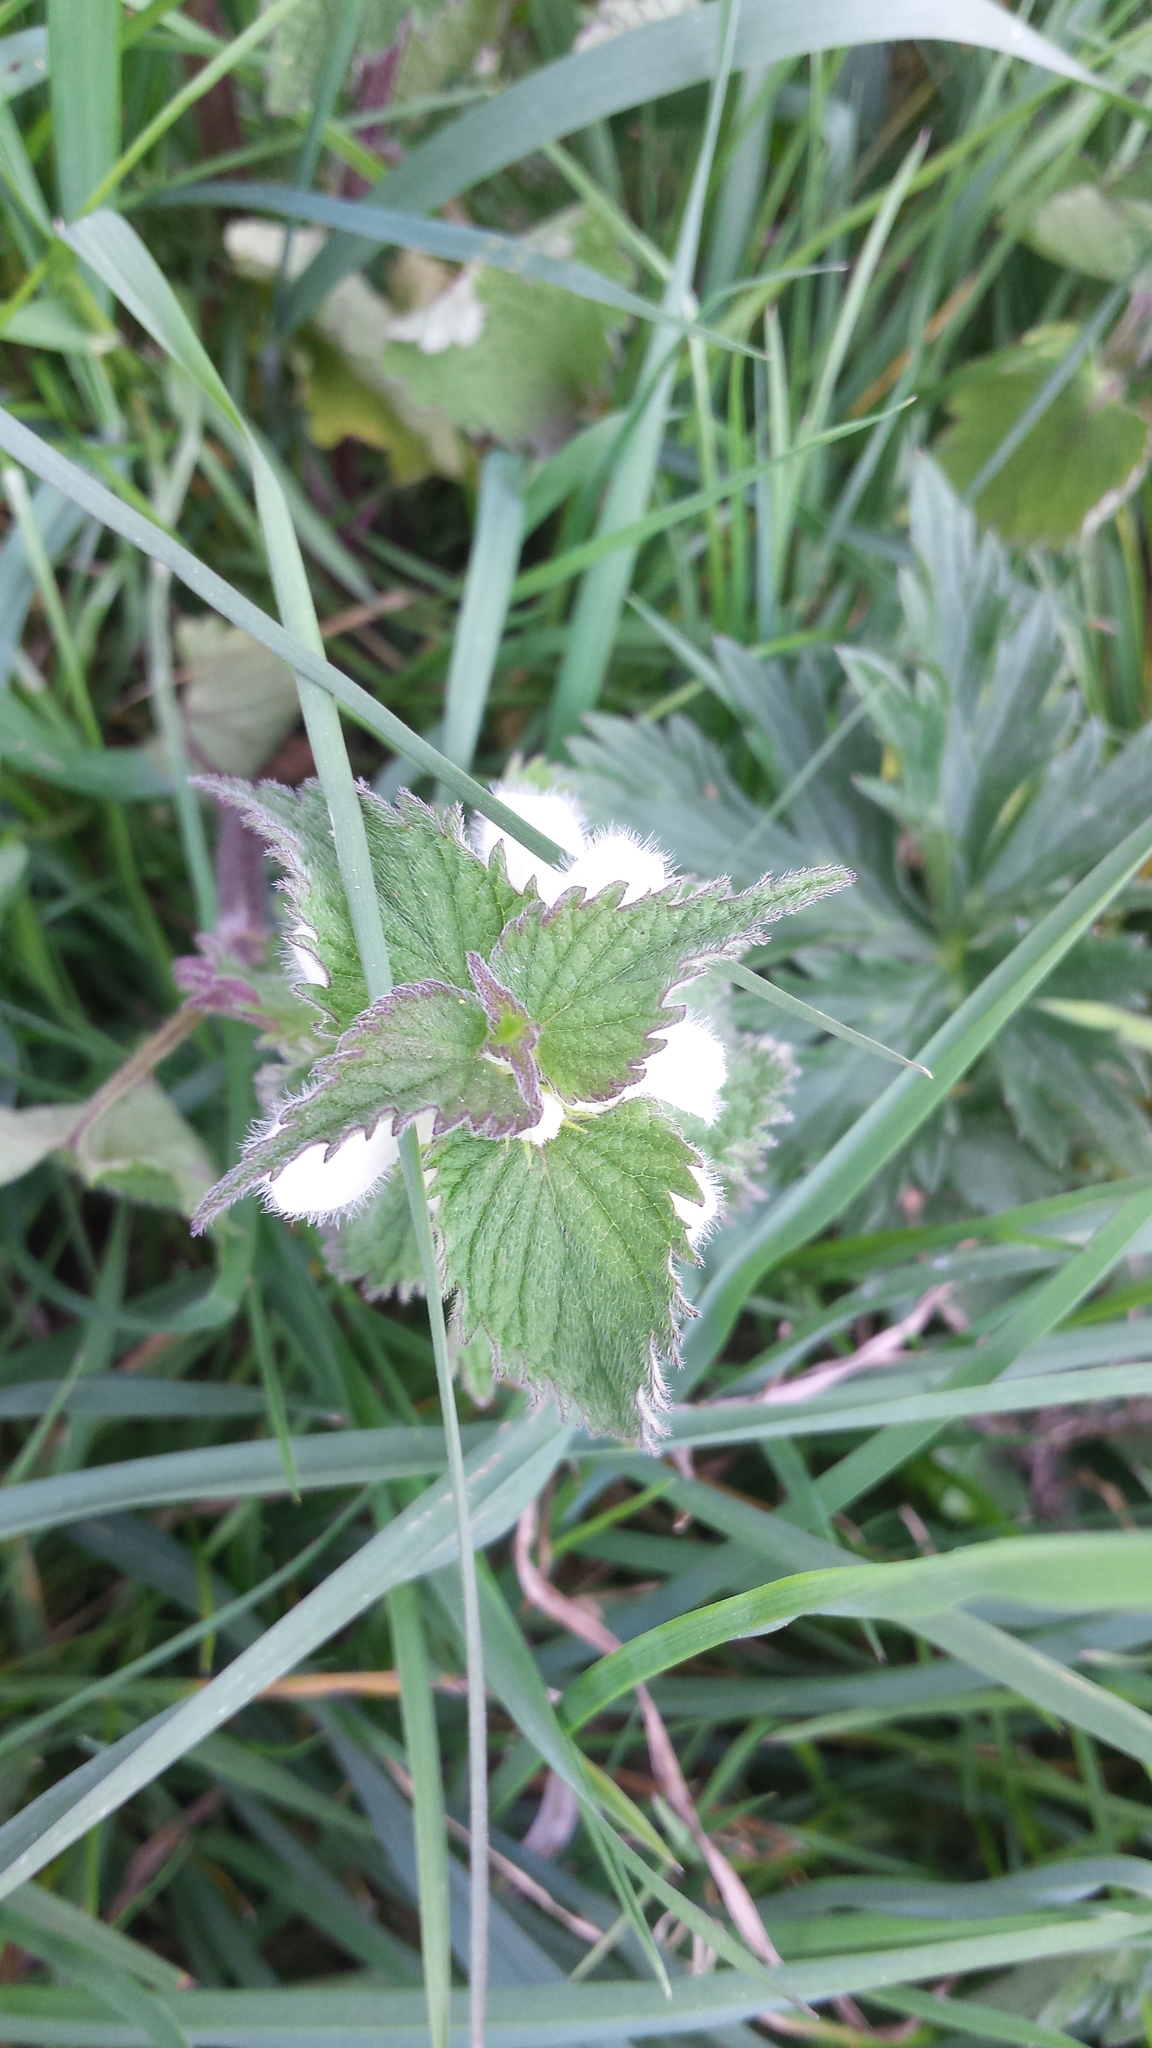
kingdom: Plantae
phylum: Tracheophyta
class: Magnoliopsida
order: Lamiales
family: Lamiaceae
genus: Lamium
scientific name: Lamium album
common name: White dead-nettle
